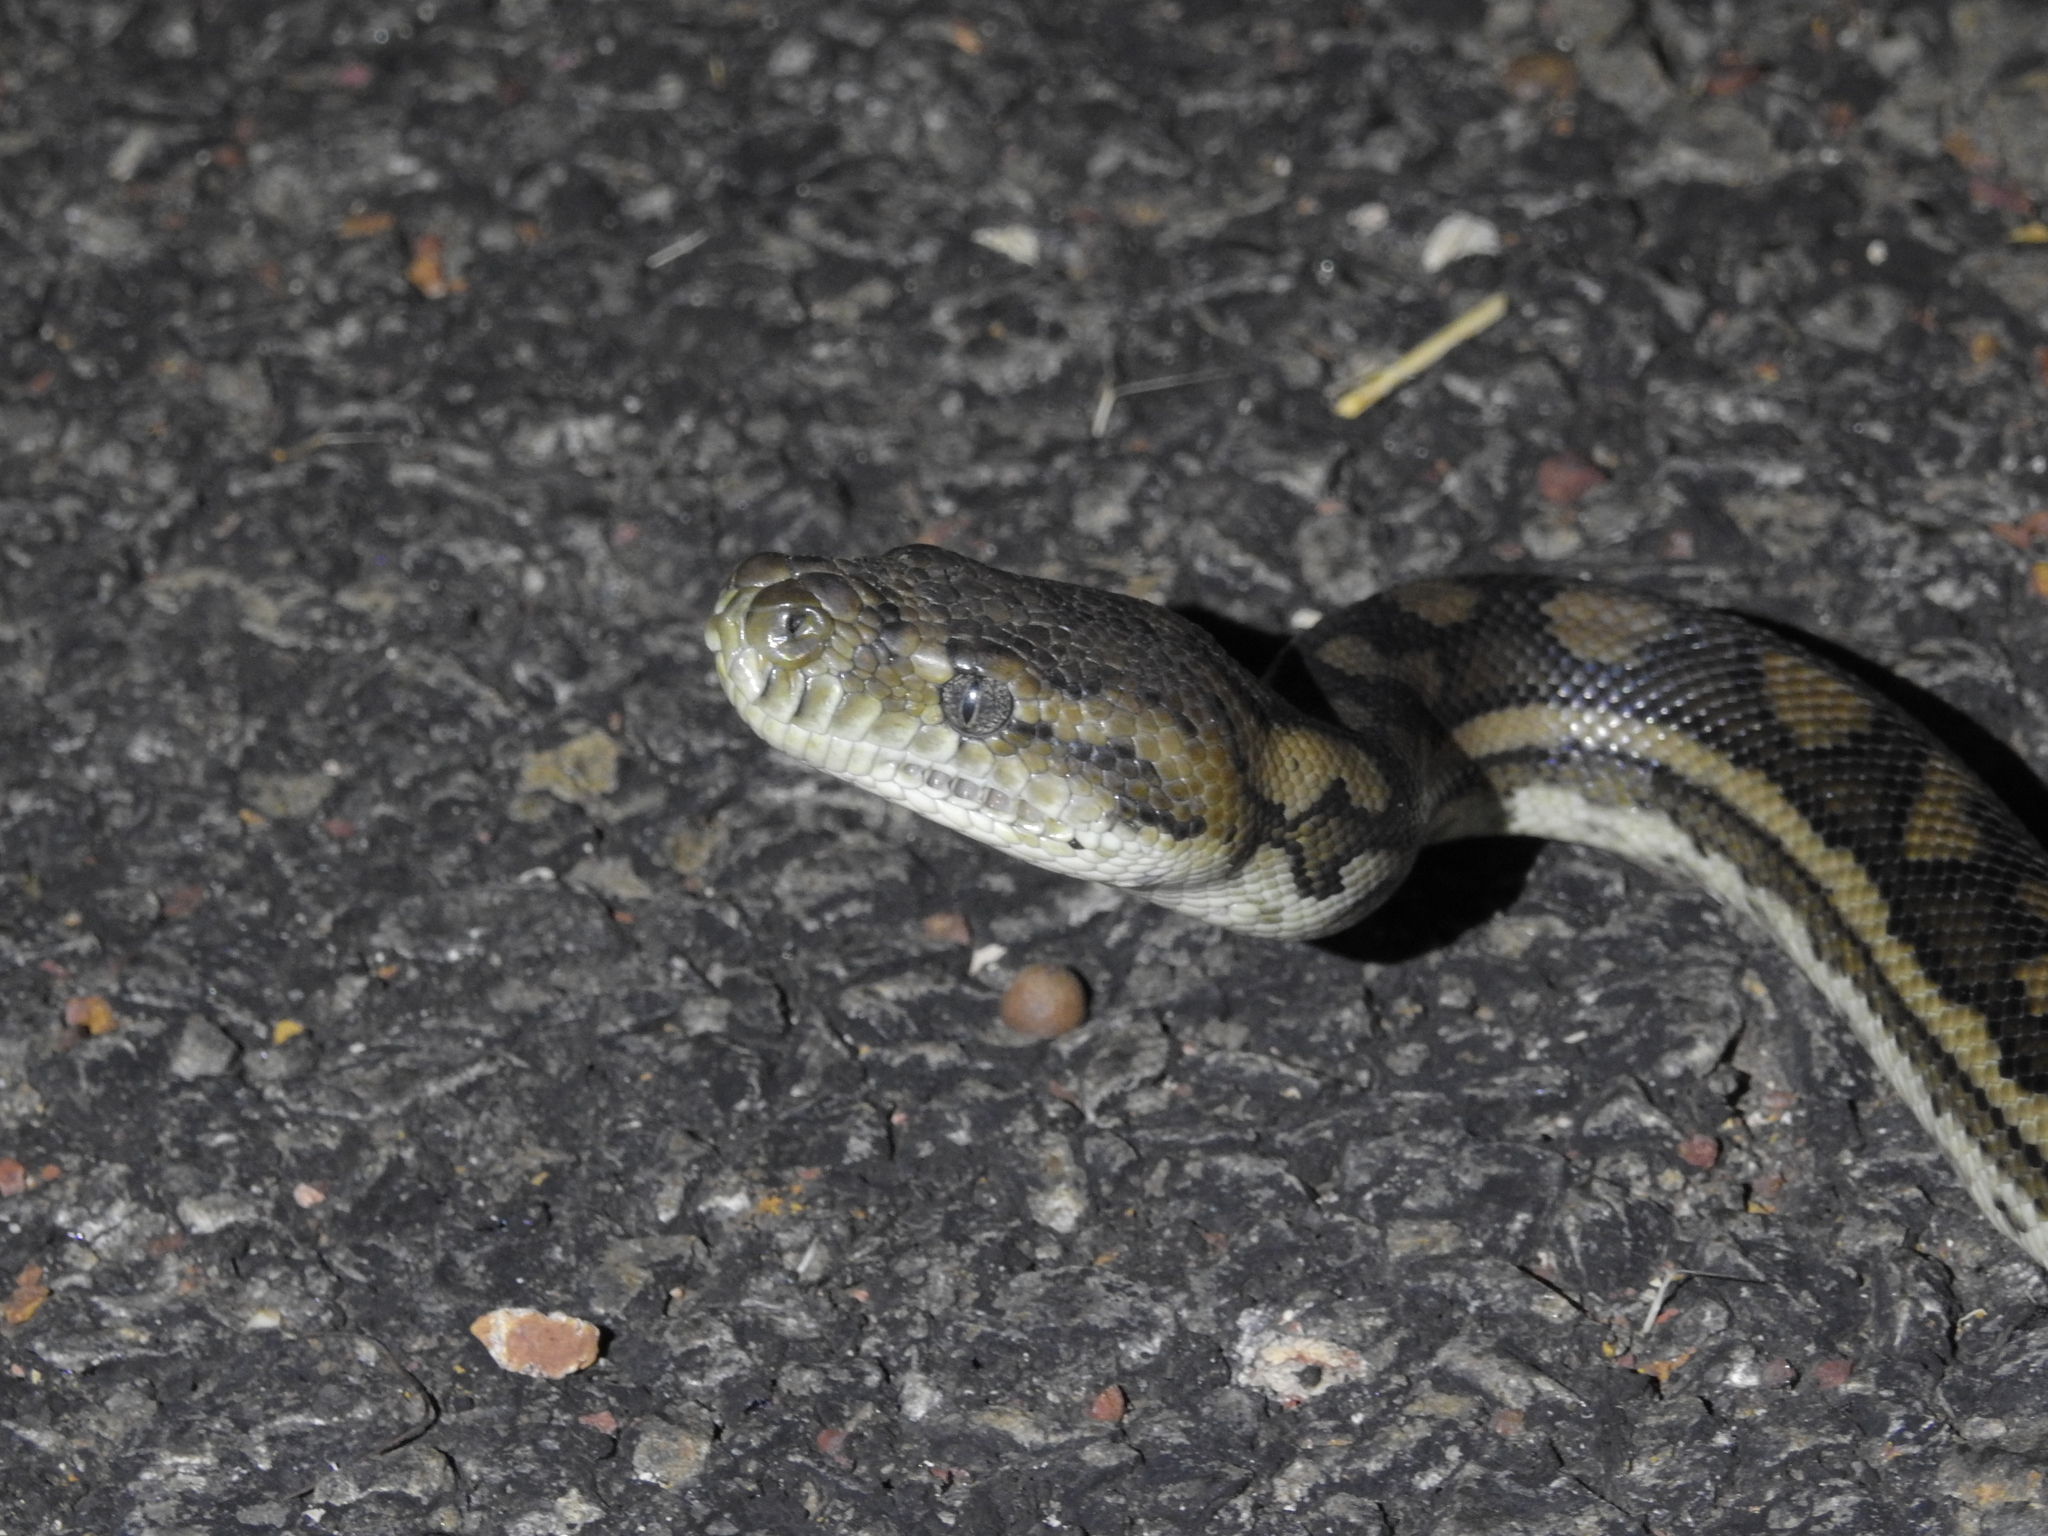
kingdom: Animalia
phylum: Chordata
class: Squamata
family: Pythonidae
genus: Morelia
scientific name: Morelia spilota
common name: Carpet python
